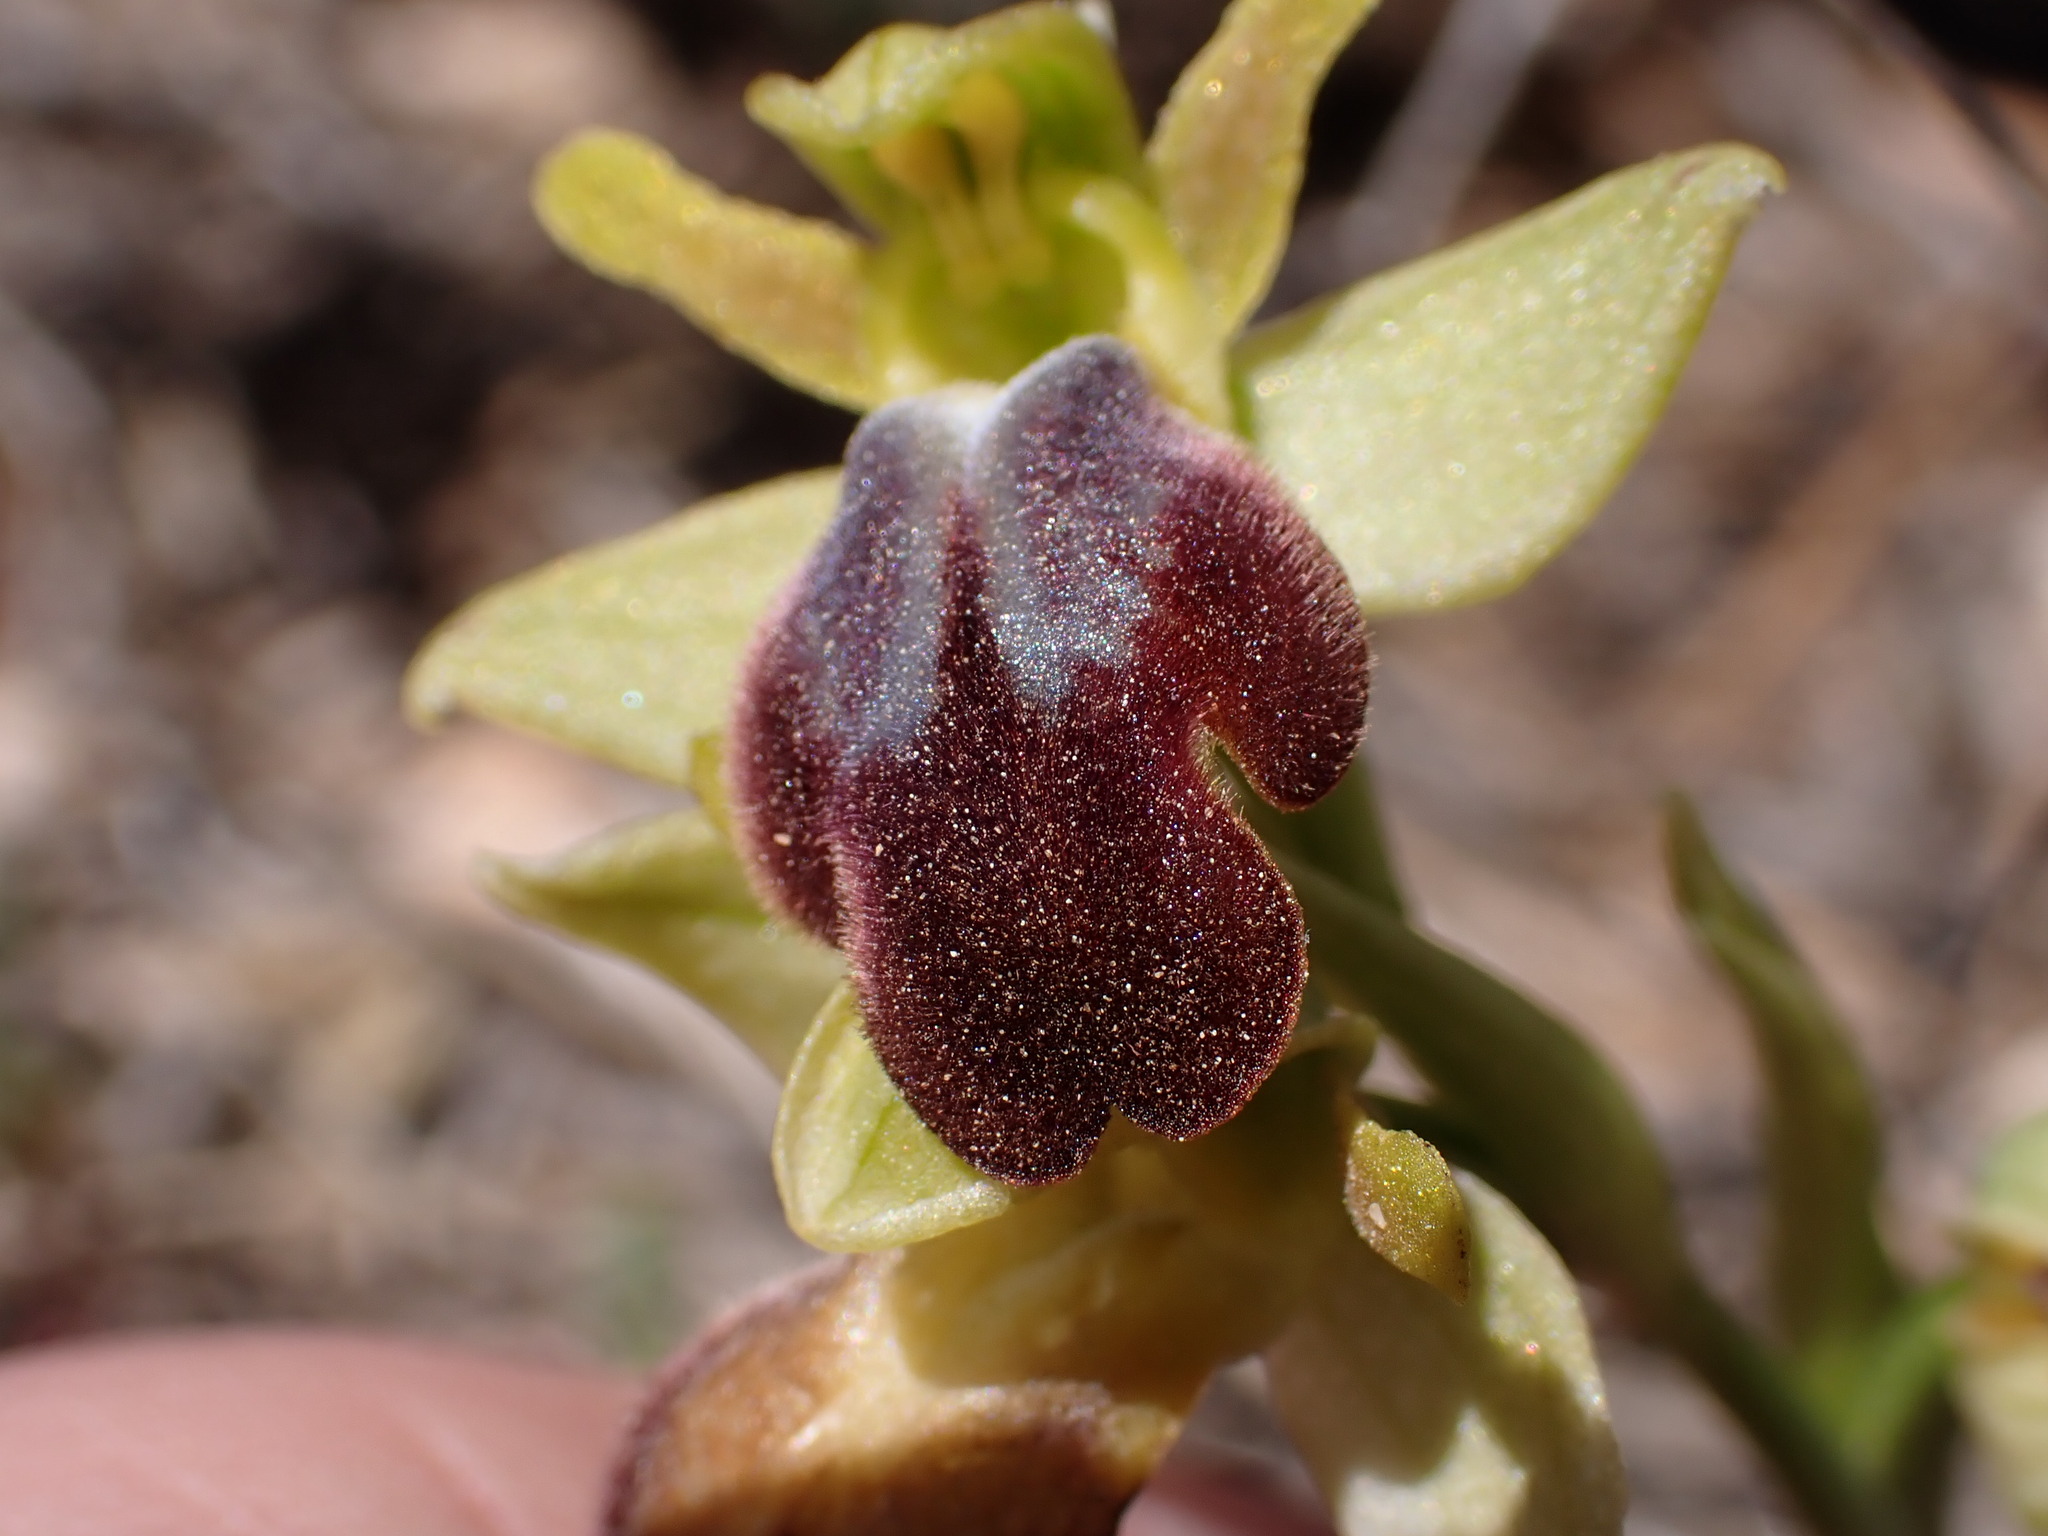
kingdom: Plantae
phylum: Tracheophyta
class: Liliopsida
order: Asparagales
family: Orchidaceae
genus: Ophrys
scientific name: Ophrys fusca
